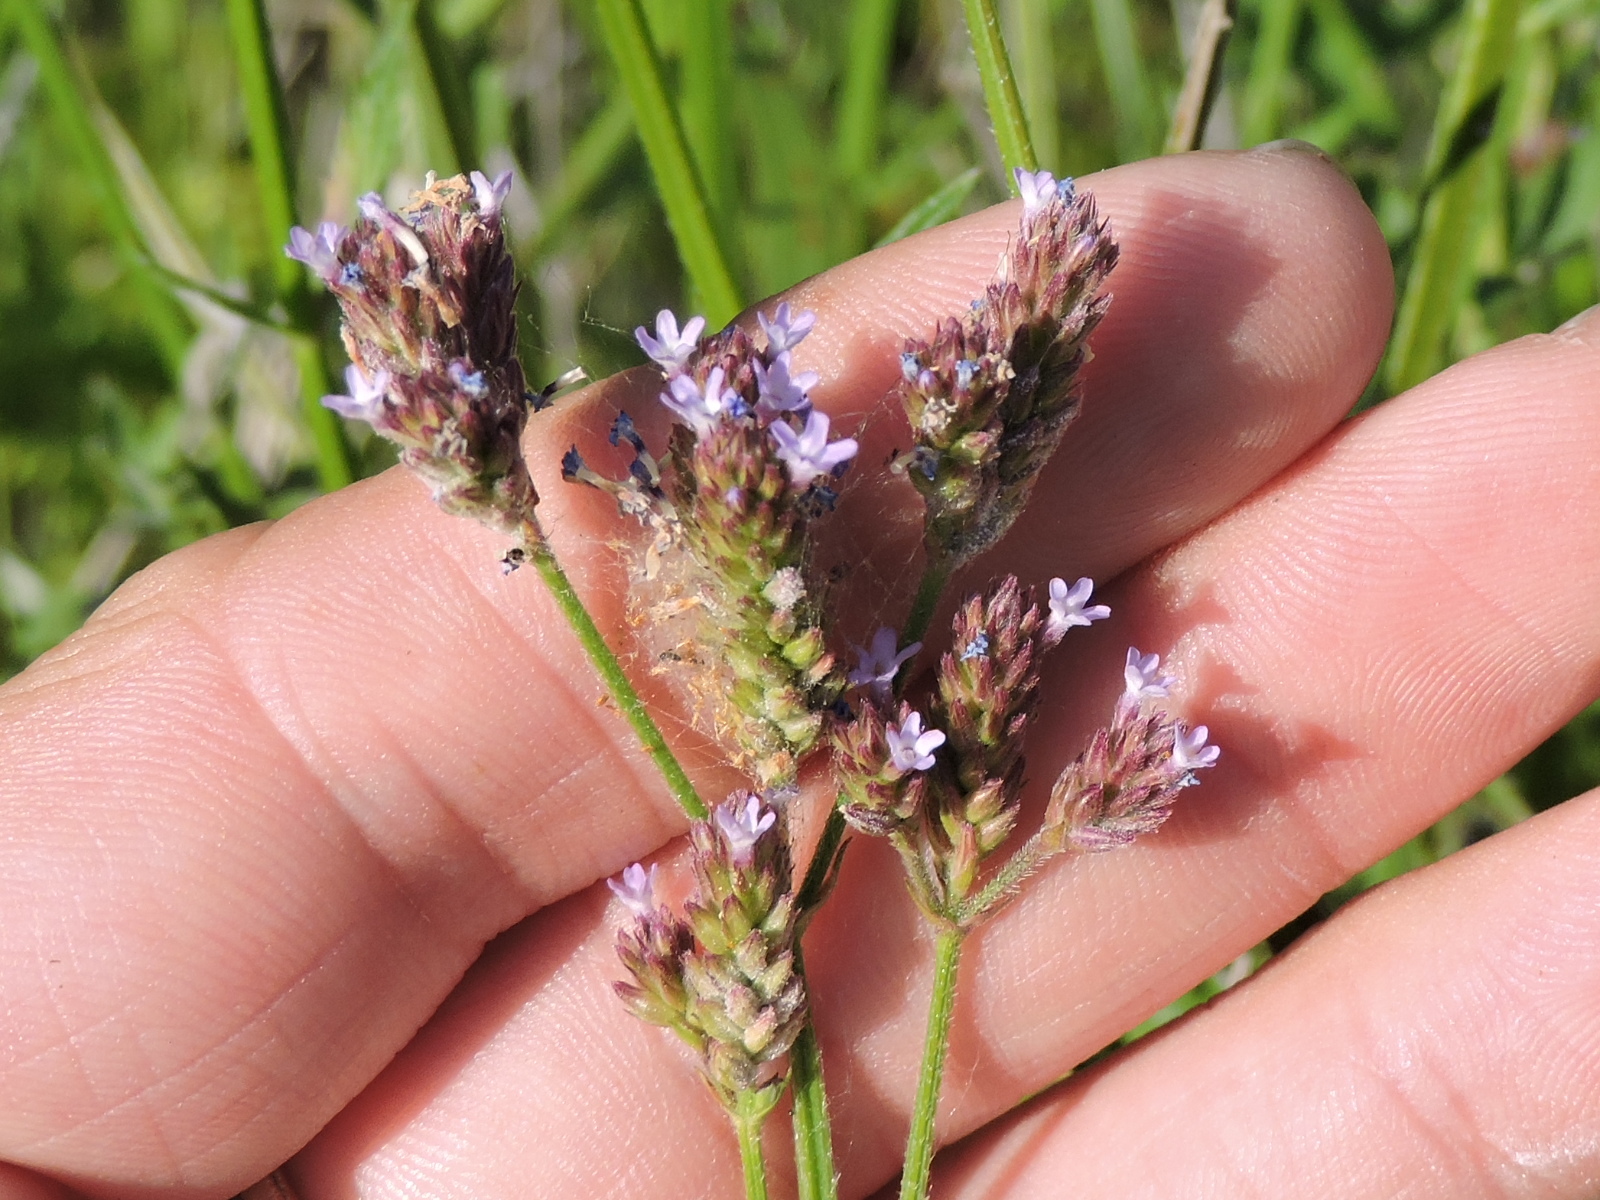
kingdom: Plantae
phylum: Tracheophyta
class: Magnoliopsida
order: Lamiales
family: Verbenaceae
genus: Verbena
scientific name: Verbena brasiliensis
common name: Brazilian vervain
